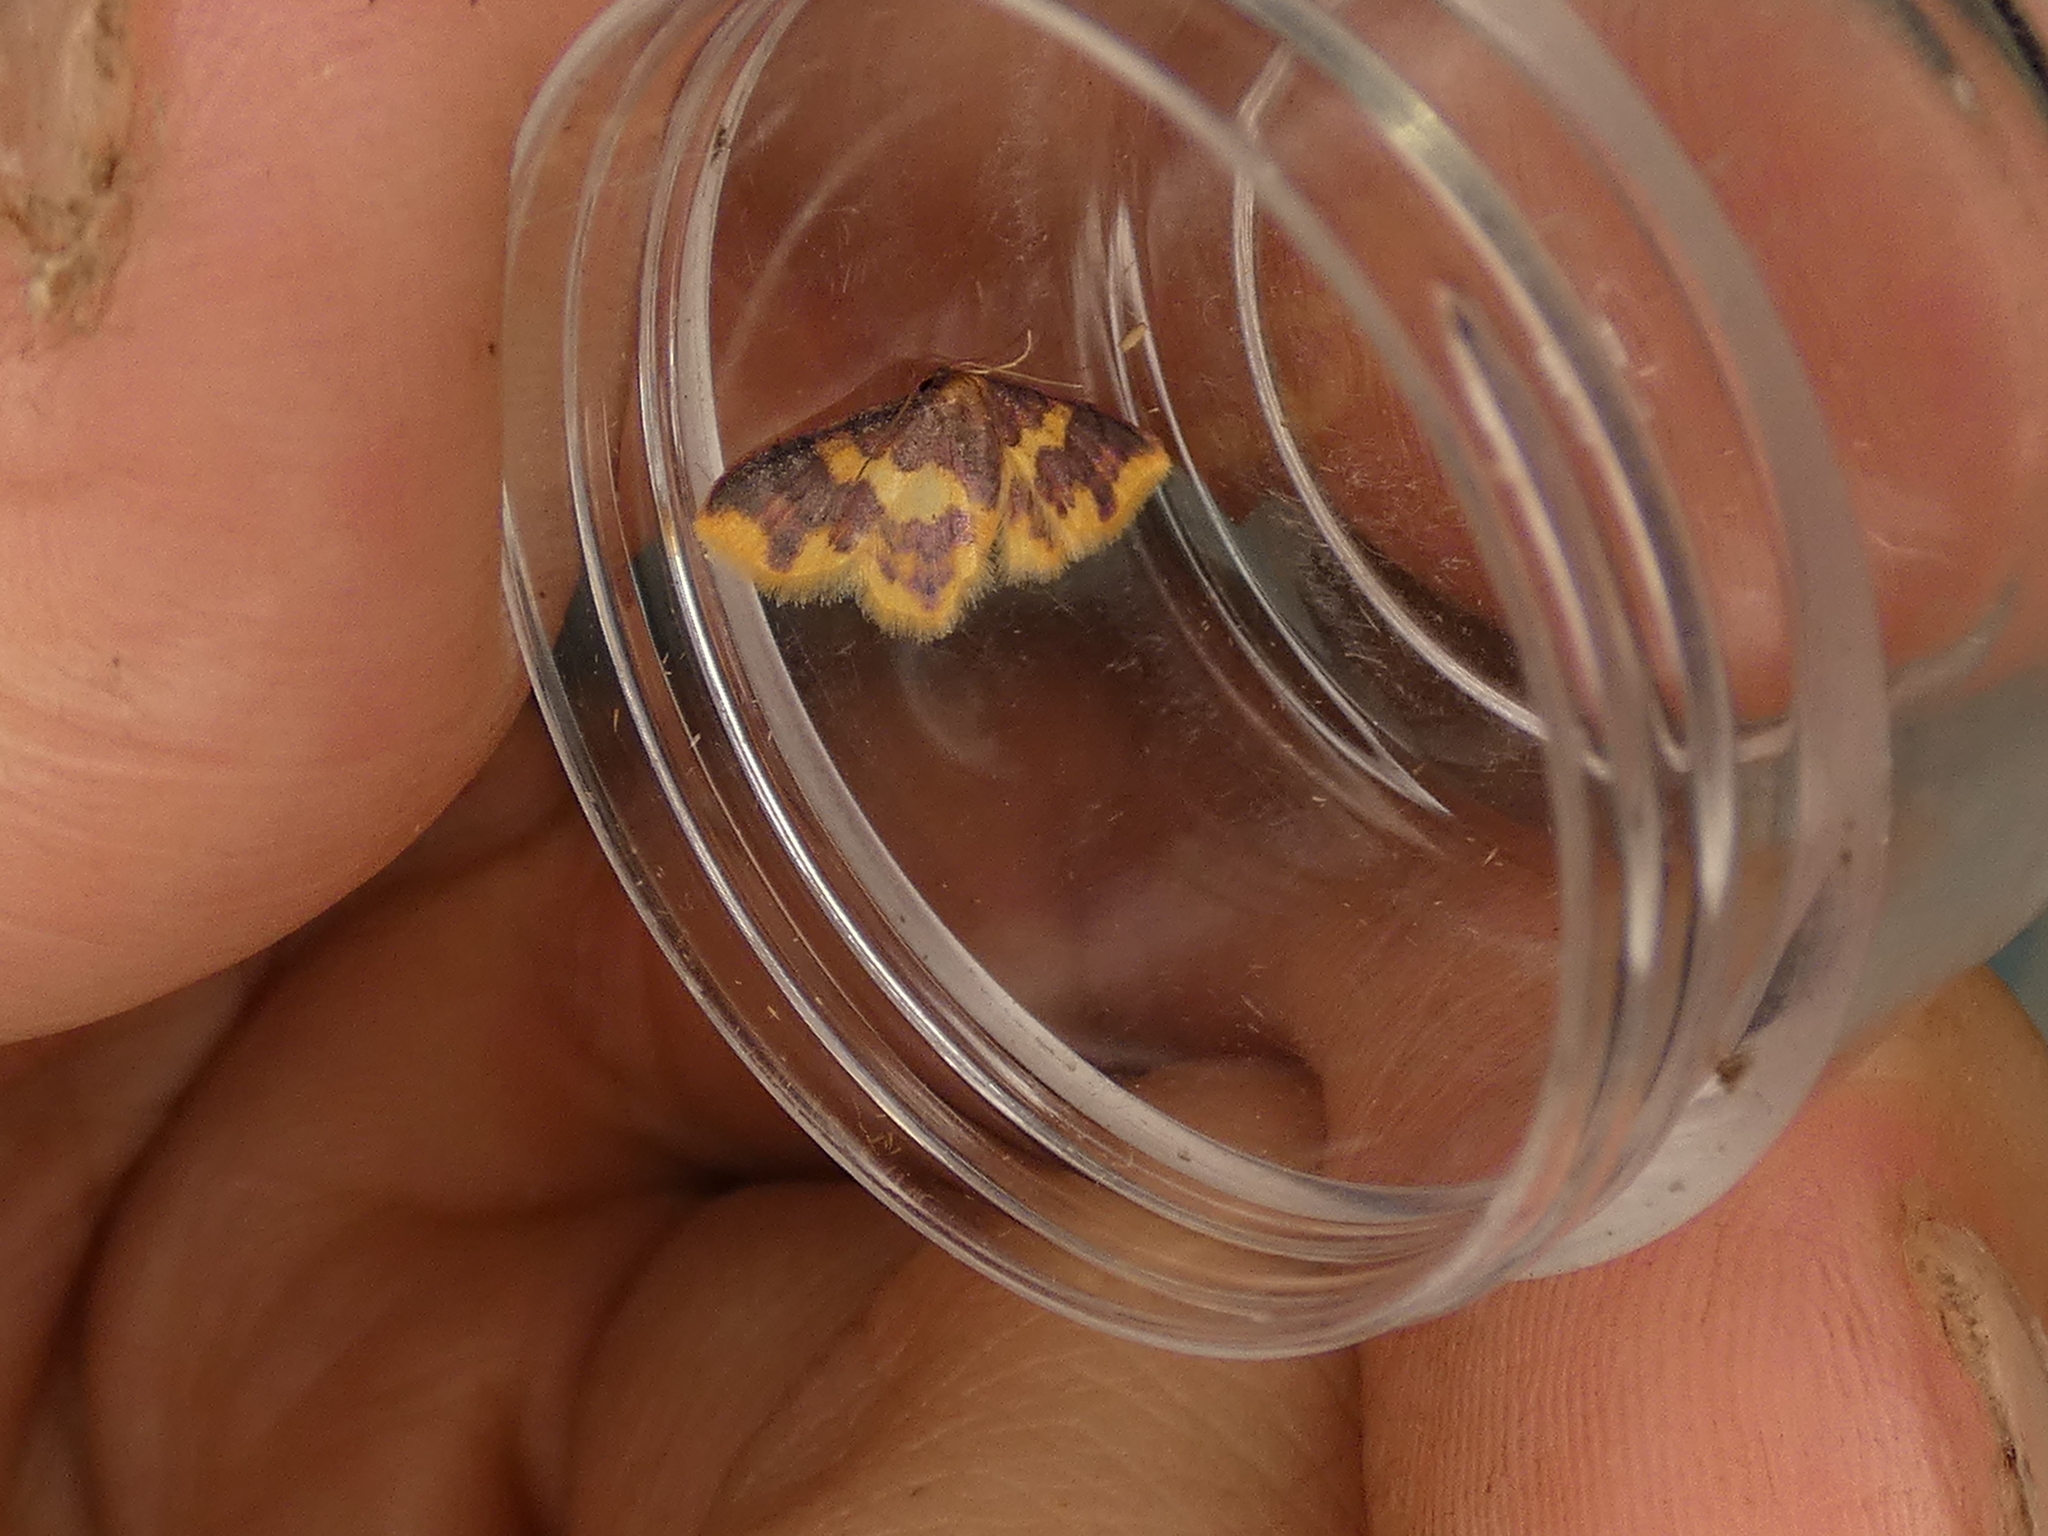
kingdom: Animalia
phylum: Arthropoda
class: Insecta
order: Lepidoptera
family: Geometridae
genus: Lophosis
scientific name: Lophosis labeculata
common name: Stained lophosis moth
